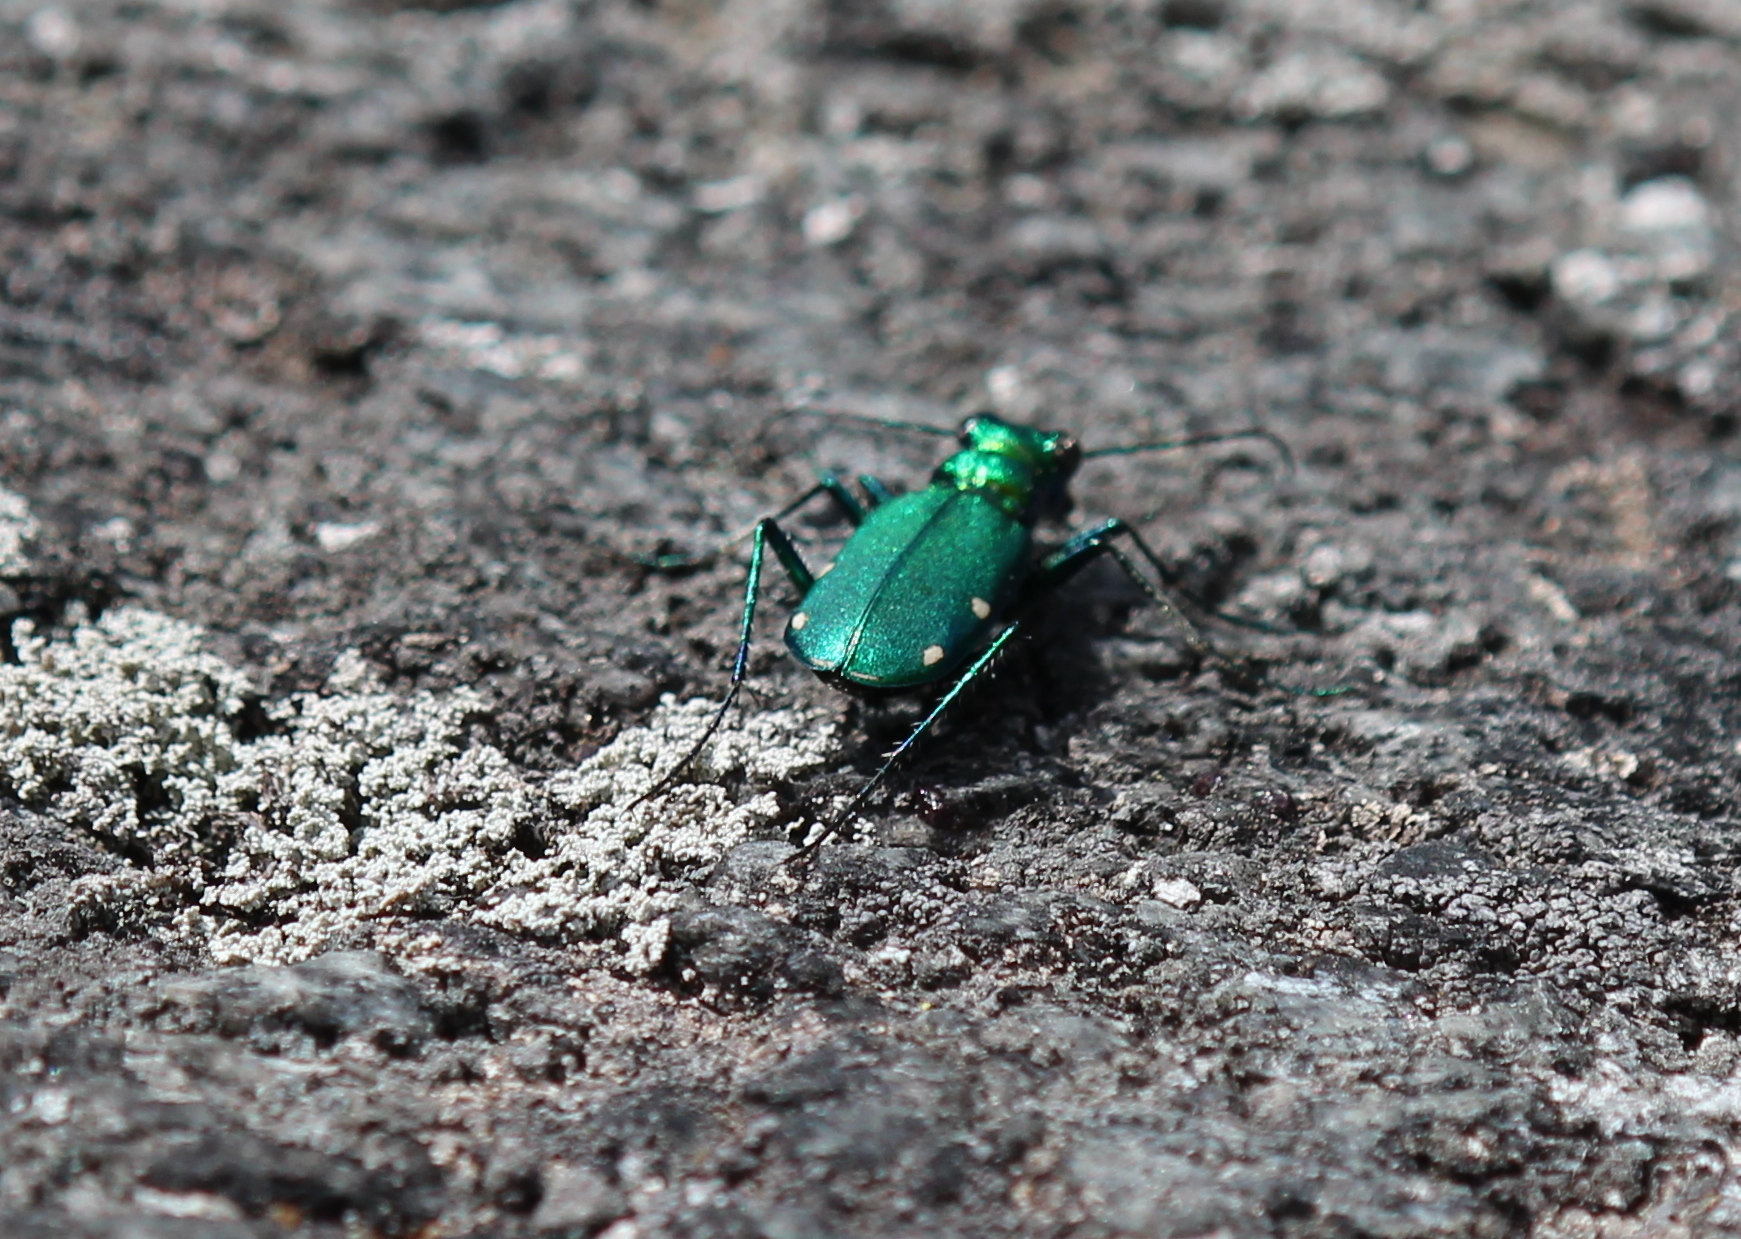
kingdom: Animalia
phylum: Arthropoda
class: Insecta
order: Coleoptera
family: Carabidae
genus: Cicindela
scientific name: Cicindela sexguttata
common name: Six-spotted tiger beetle
